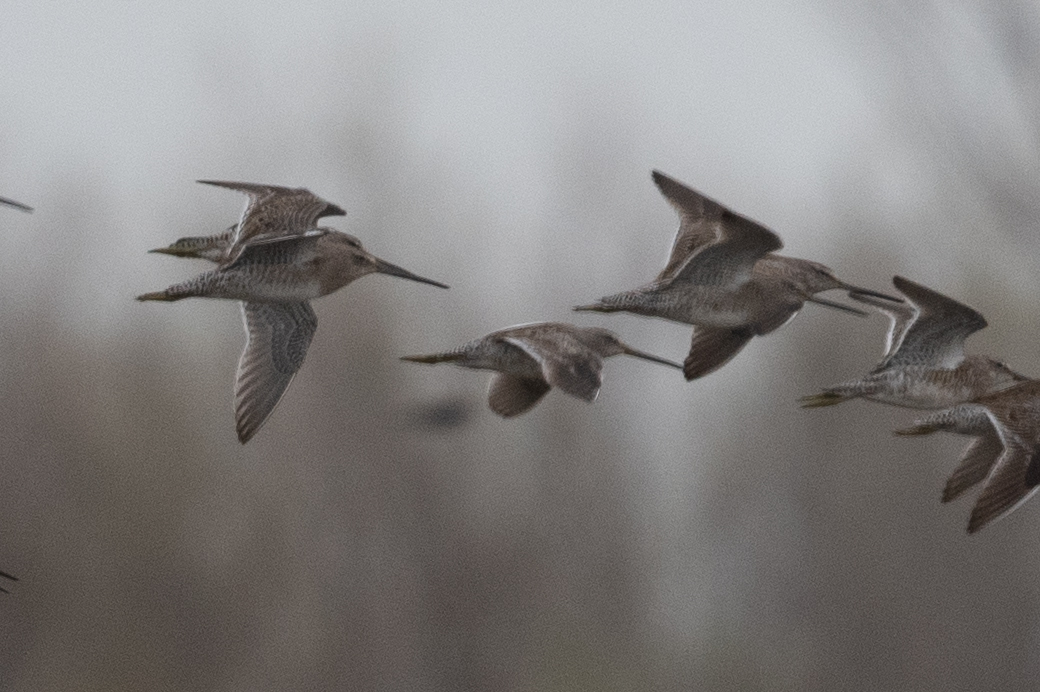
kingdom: Animalia
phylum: Chordata
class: Aves
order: Charadriiformes
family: Scolopacidae
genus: Limnodromus
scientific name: Limnodromus scolopaceus
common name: Long-billed dowitcher
